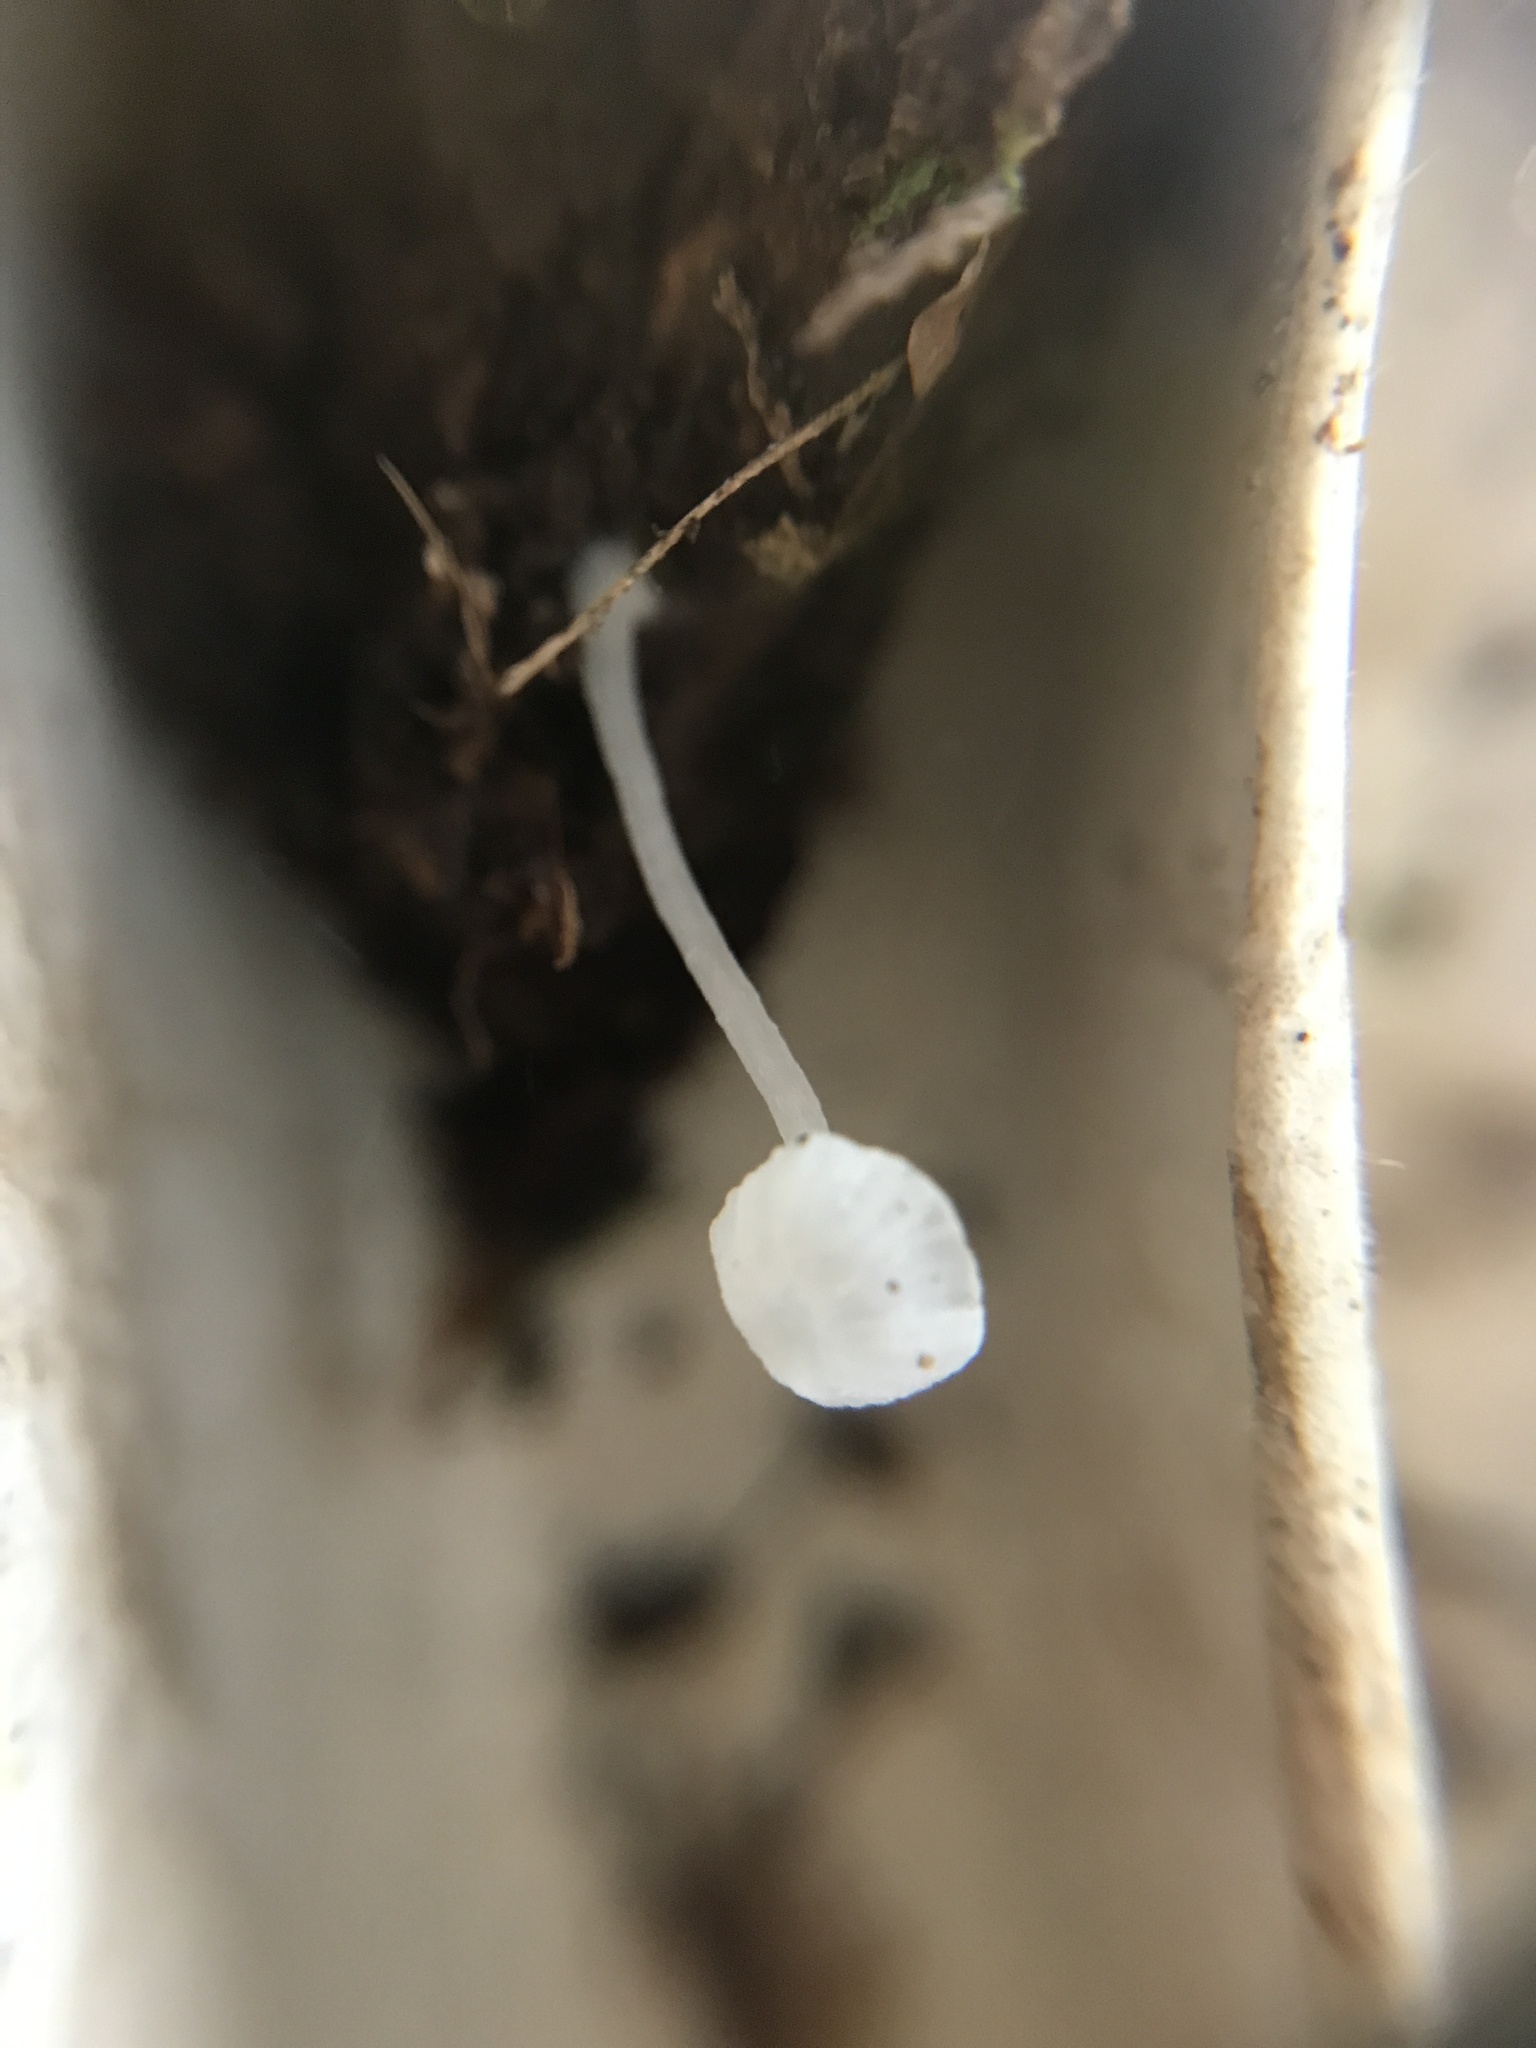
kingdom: Fungi
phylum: Basidiomycota
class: Agaricomycetes
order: Agaricales
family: Tricholomataceae
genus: Delicatula
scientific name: Delicatula integrella
